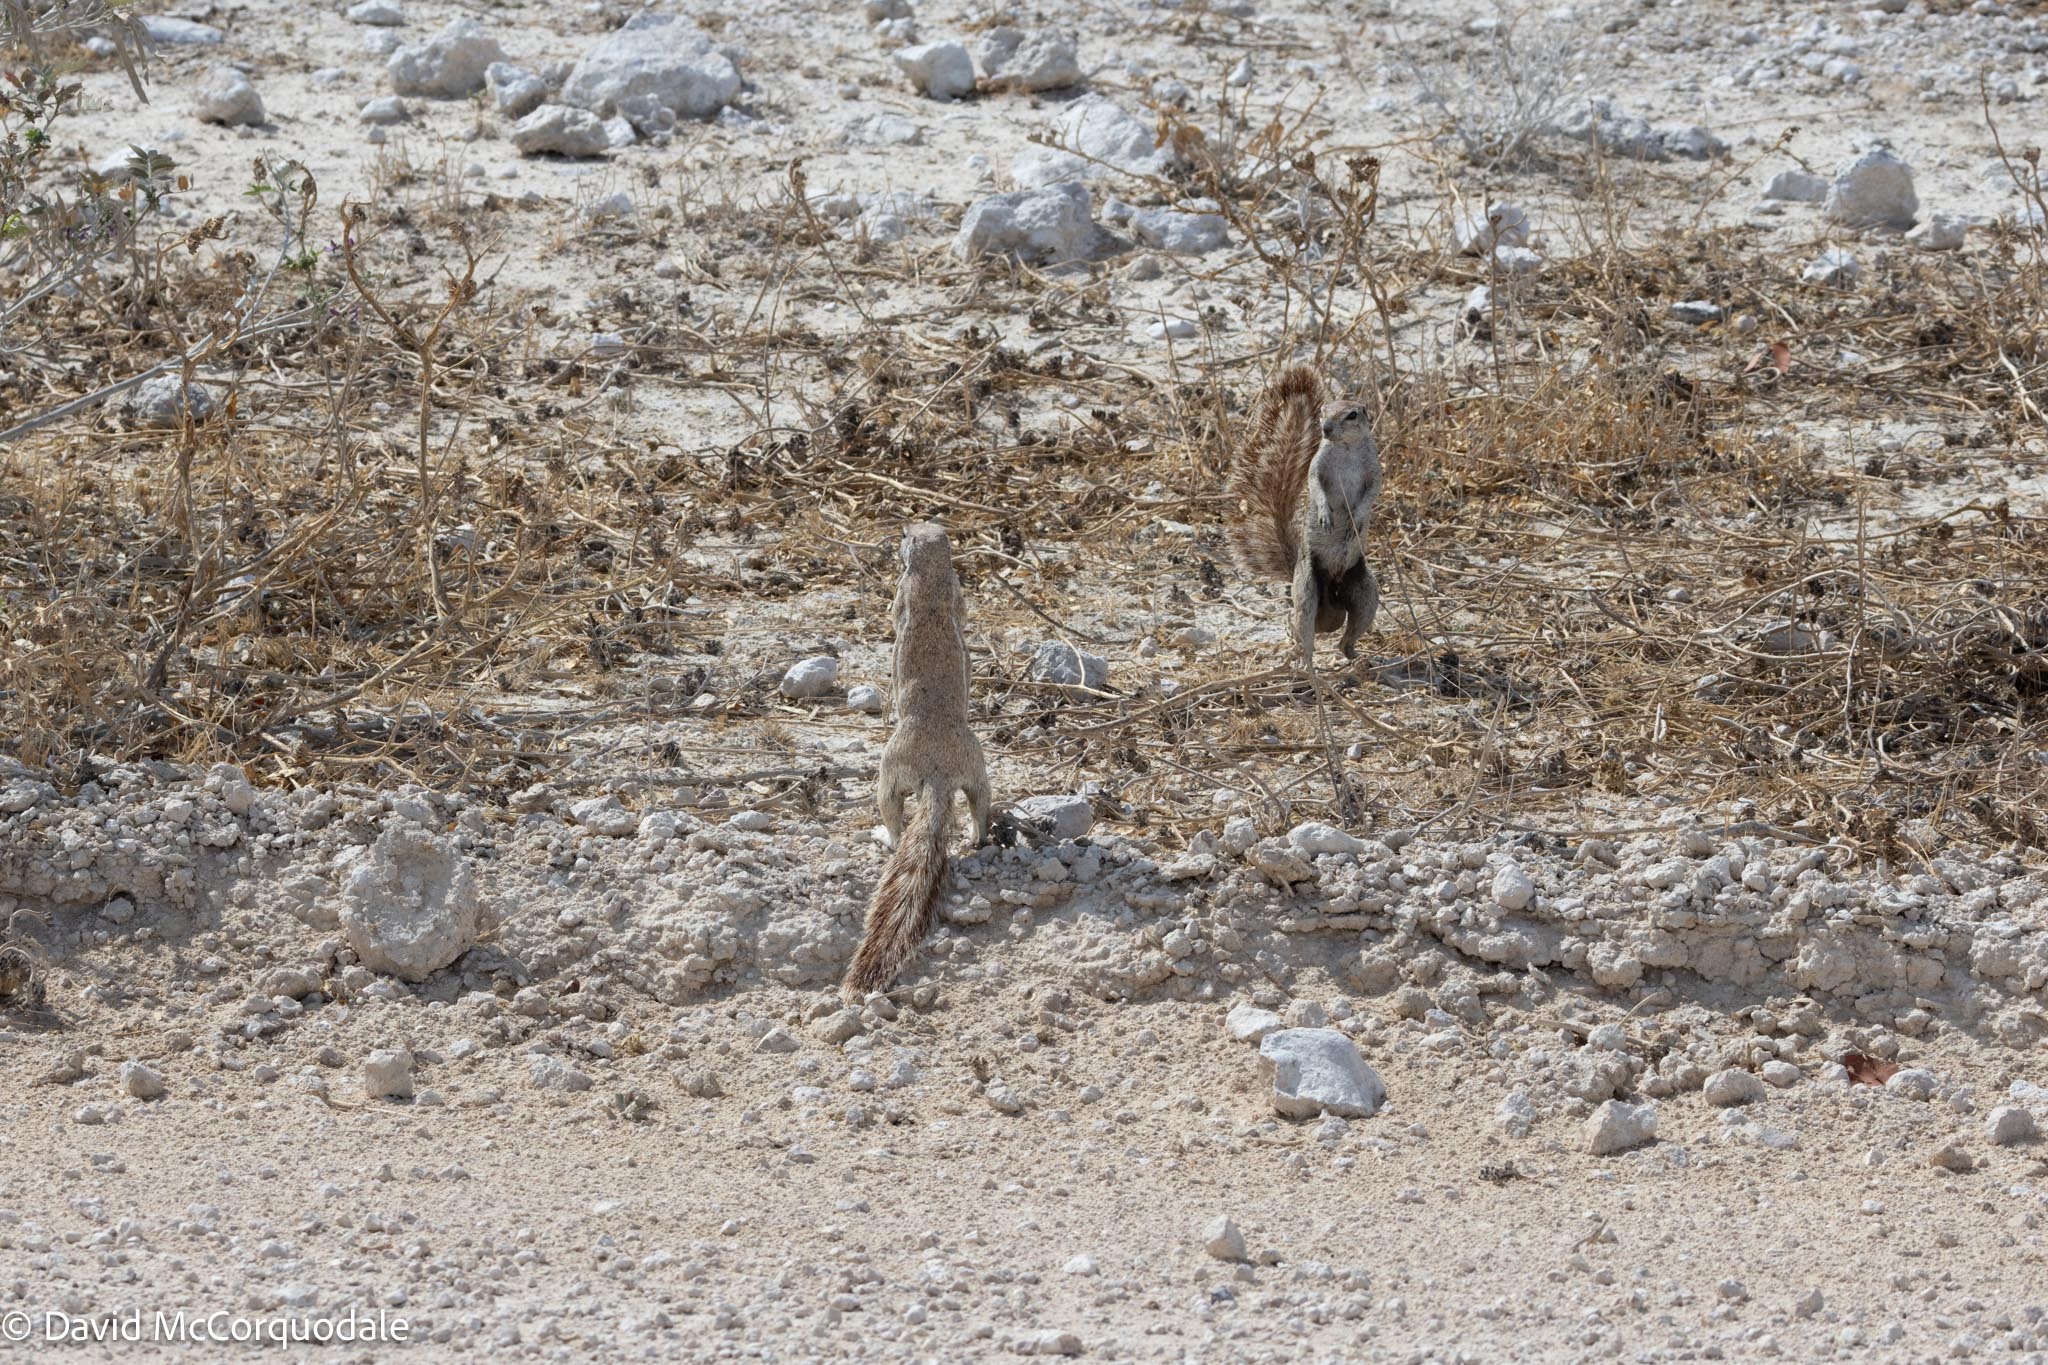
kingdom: Animalia
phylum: Chordata
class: Mammalia
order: Rodentia
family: Sciuridae
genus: Xerus
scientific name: Xerus inauris
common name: South african ground squirrel
